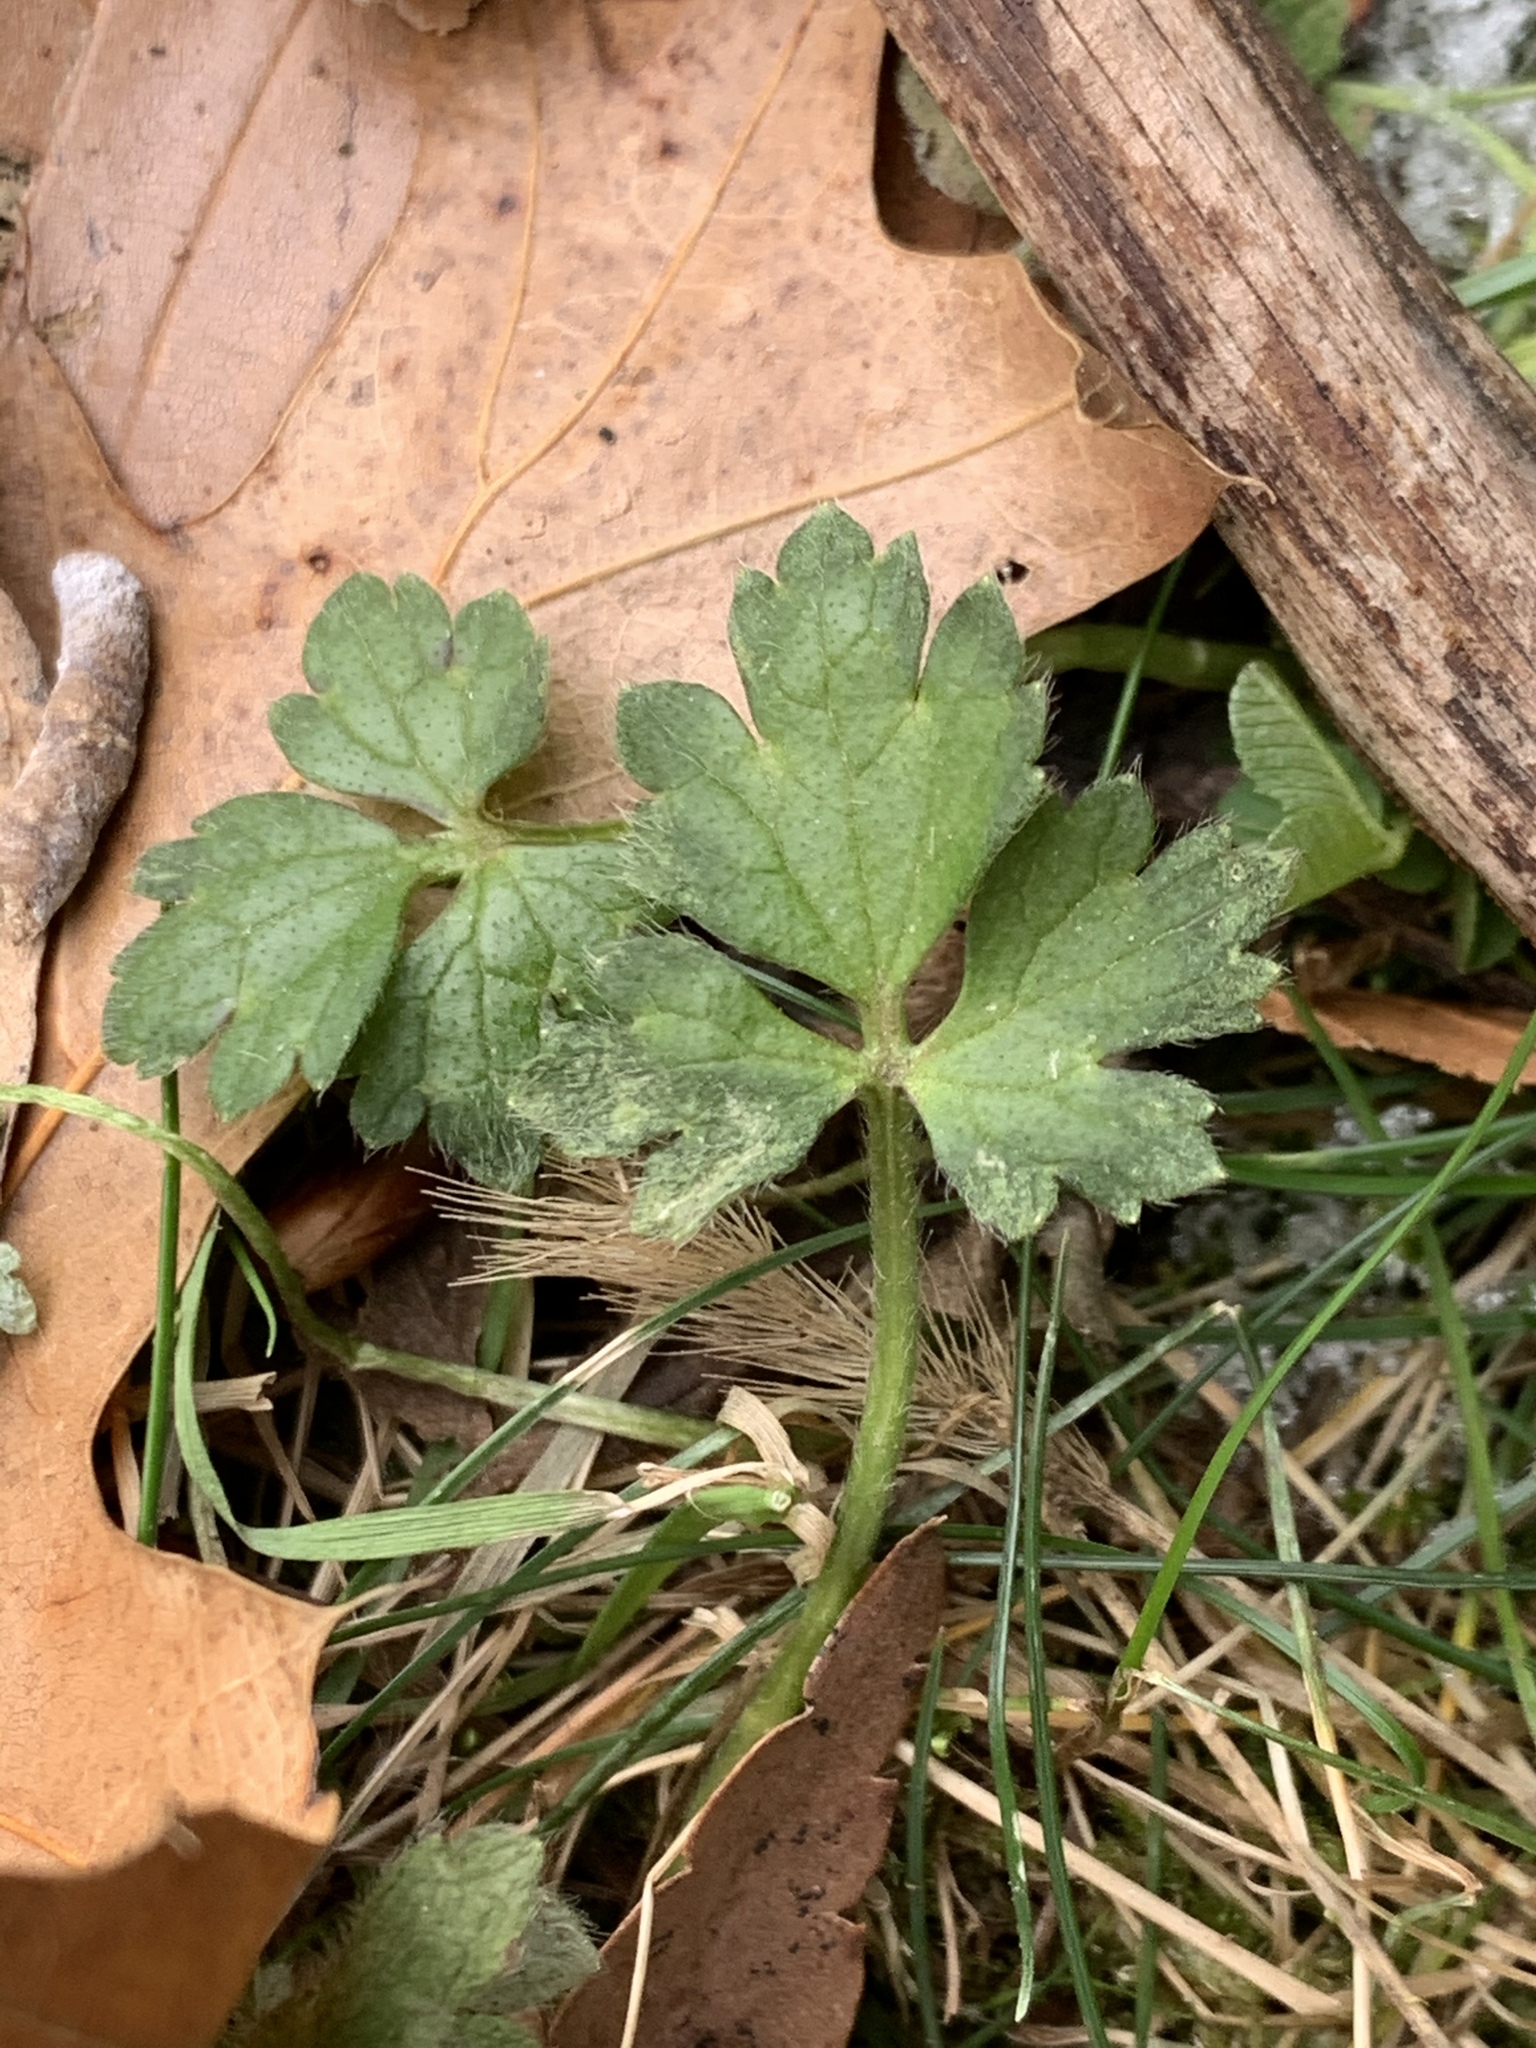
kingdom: Plantae
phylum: Tracheophyta
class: Magnoliopsida
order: Ranunculales
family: Ranunculaceae
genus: Ranunculus
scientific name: Ranunculus repens
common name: Creeping buttercup
